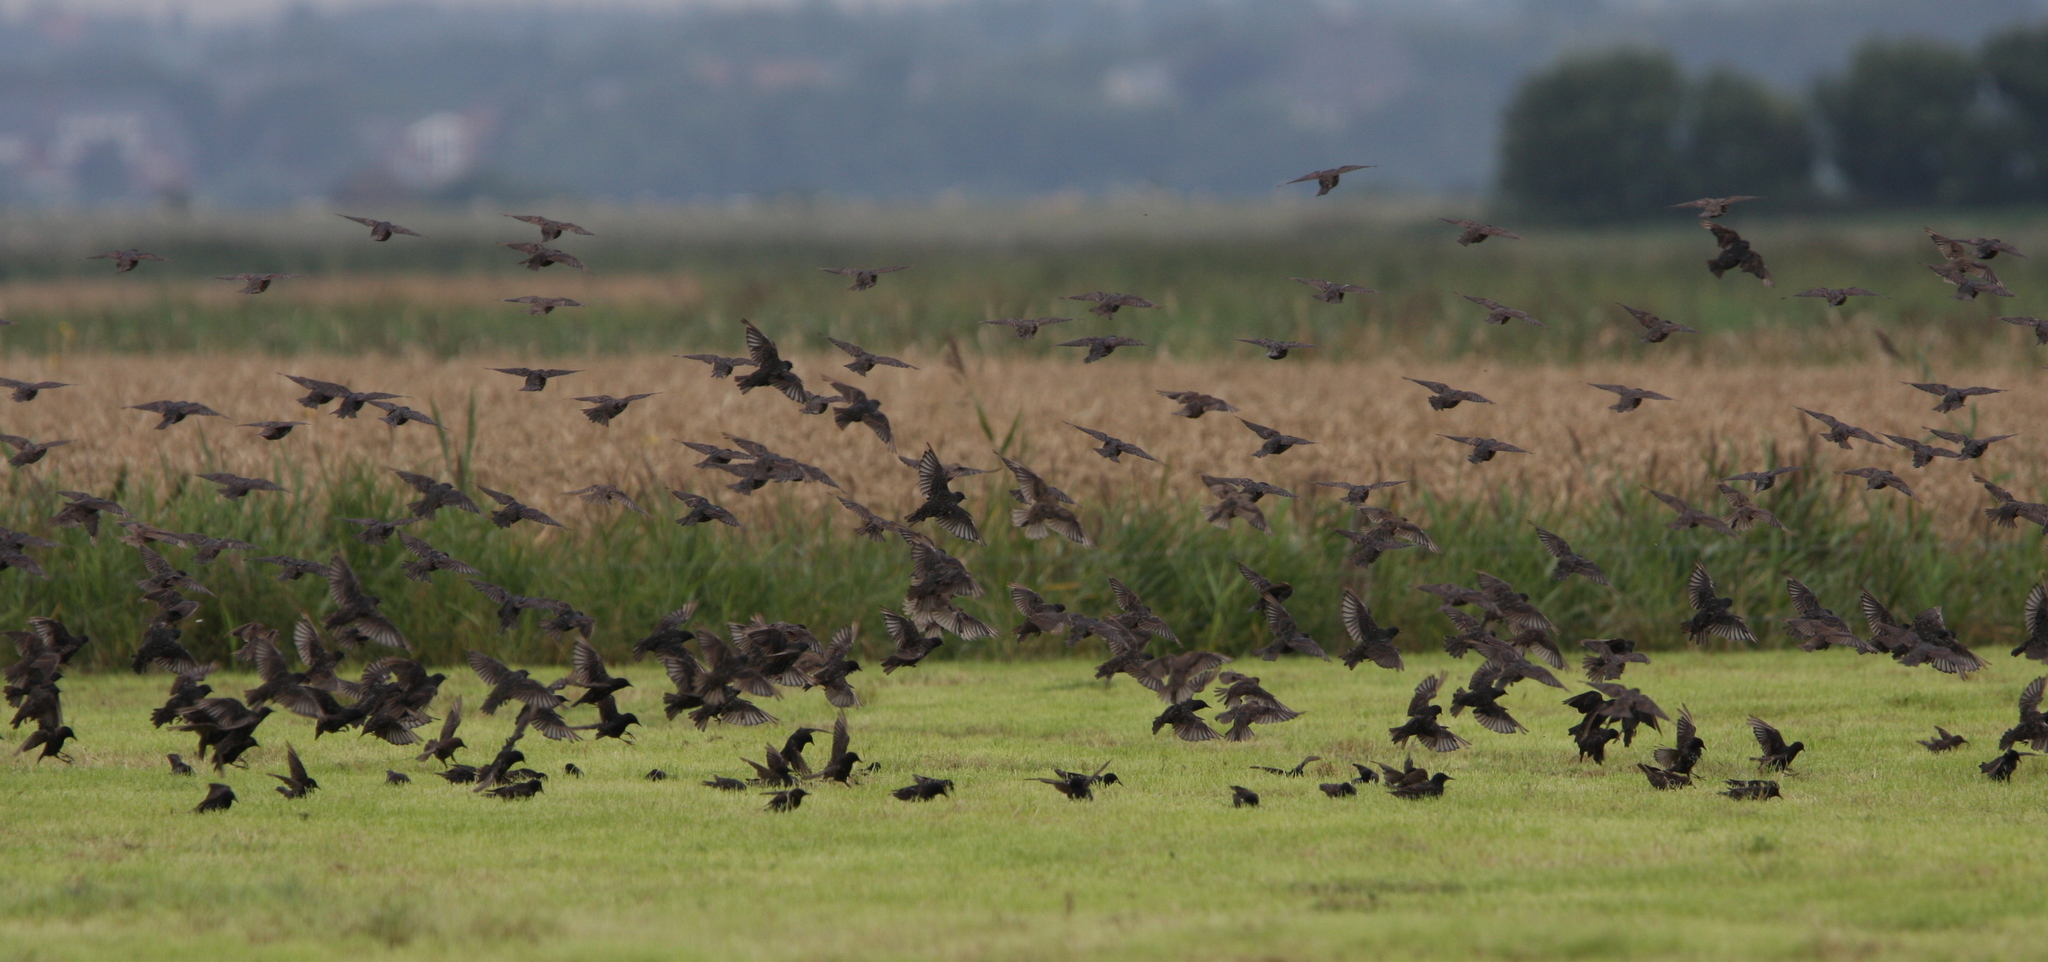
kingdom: Animalia
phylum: Chordata
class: Aves
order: Passeriformes
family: Sturnidae
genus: Sturnus
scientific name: Sturnus vulgaris
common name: Common starling
